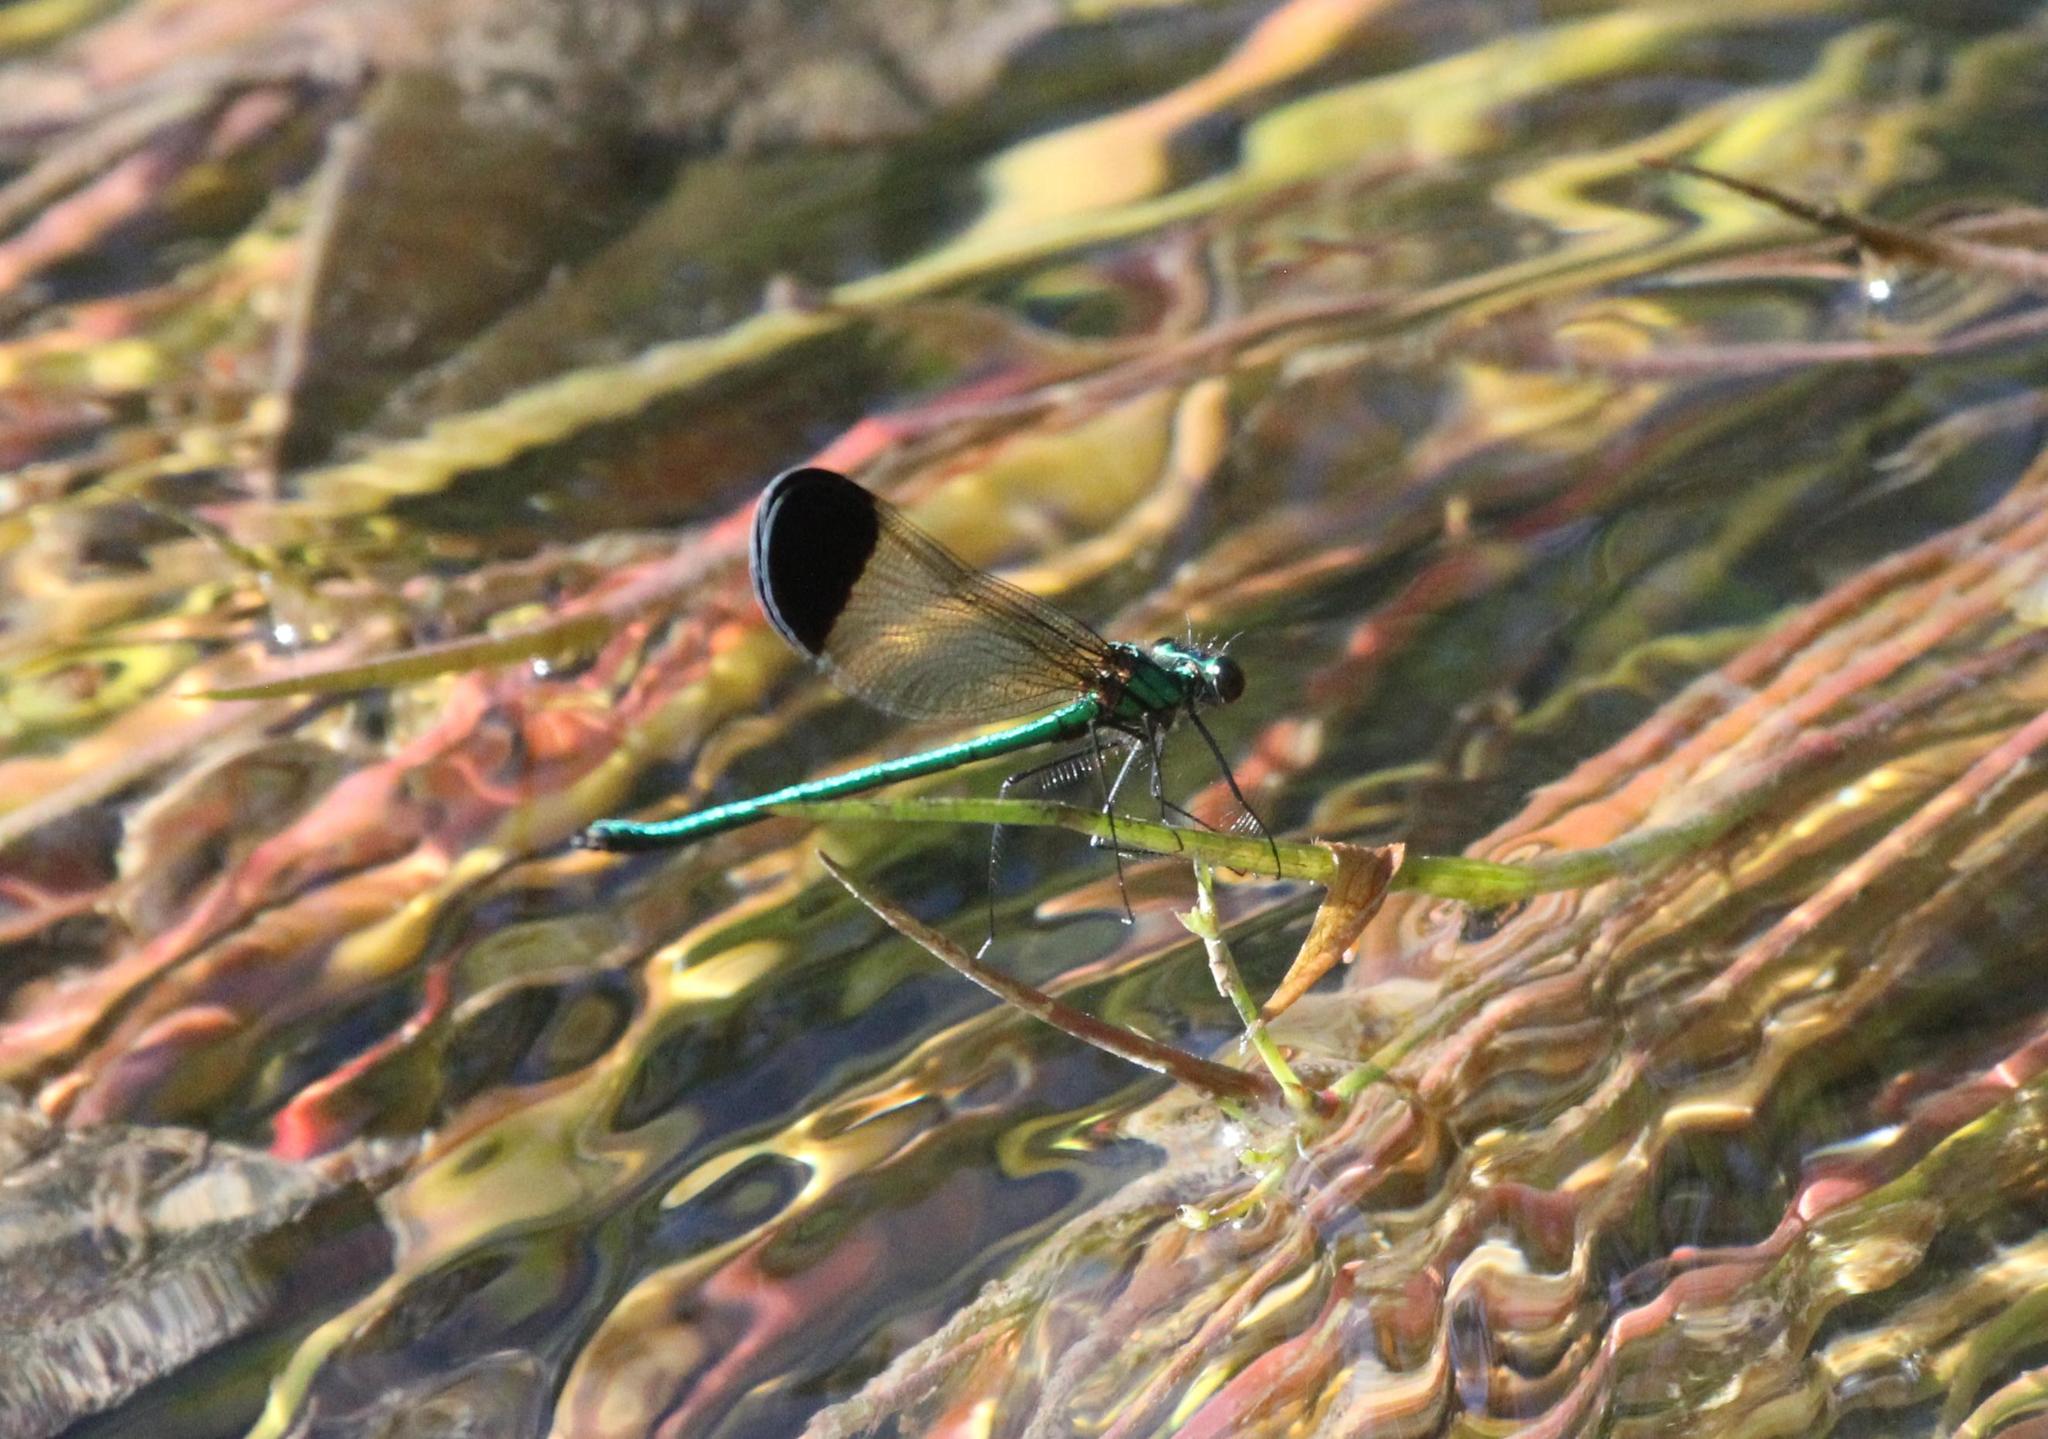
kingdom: Animalia
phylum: Arthropoda
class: Insecta
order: Odonata
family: Calopterygidae
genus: Calopteryx
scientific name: Calopteryx dimidiata
